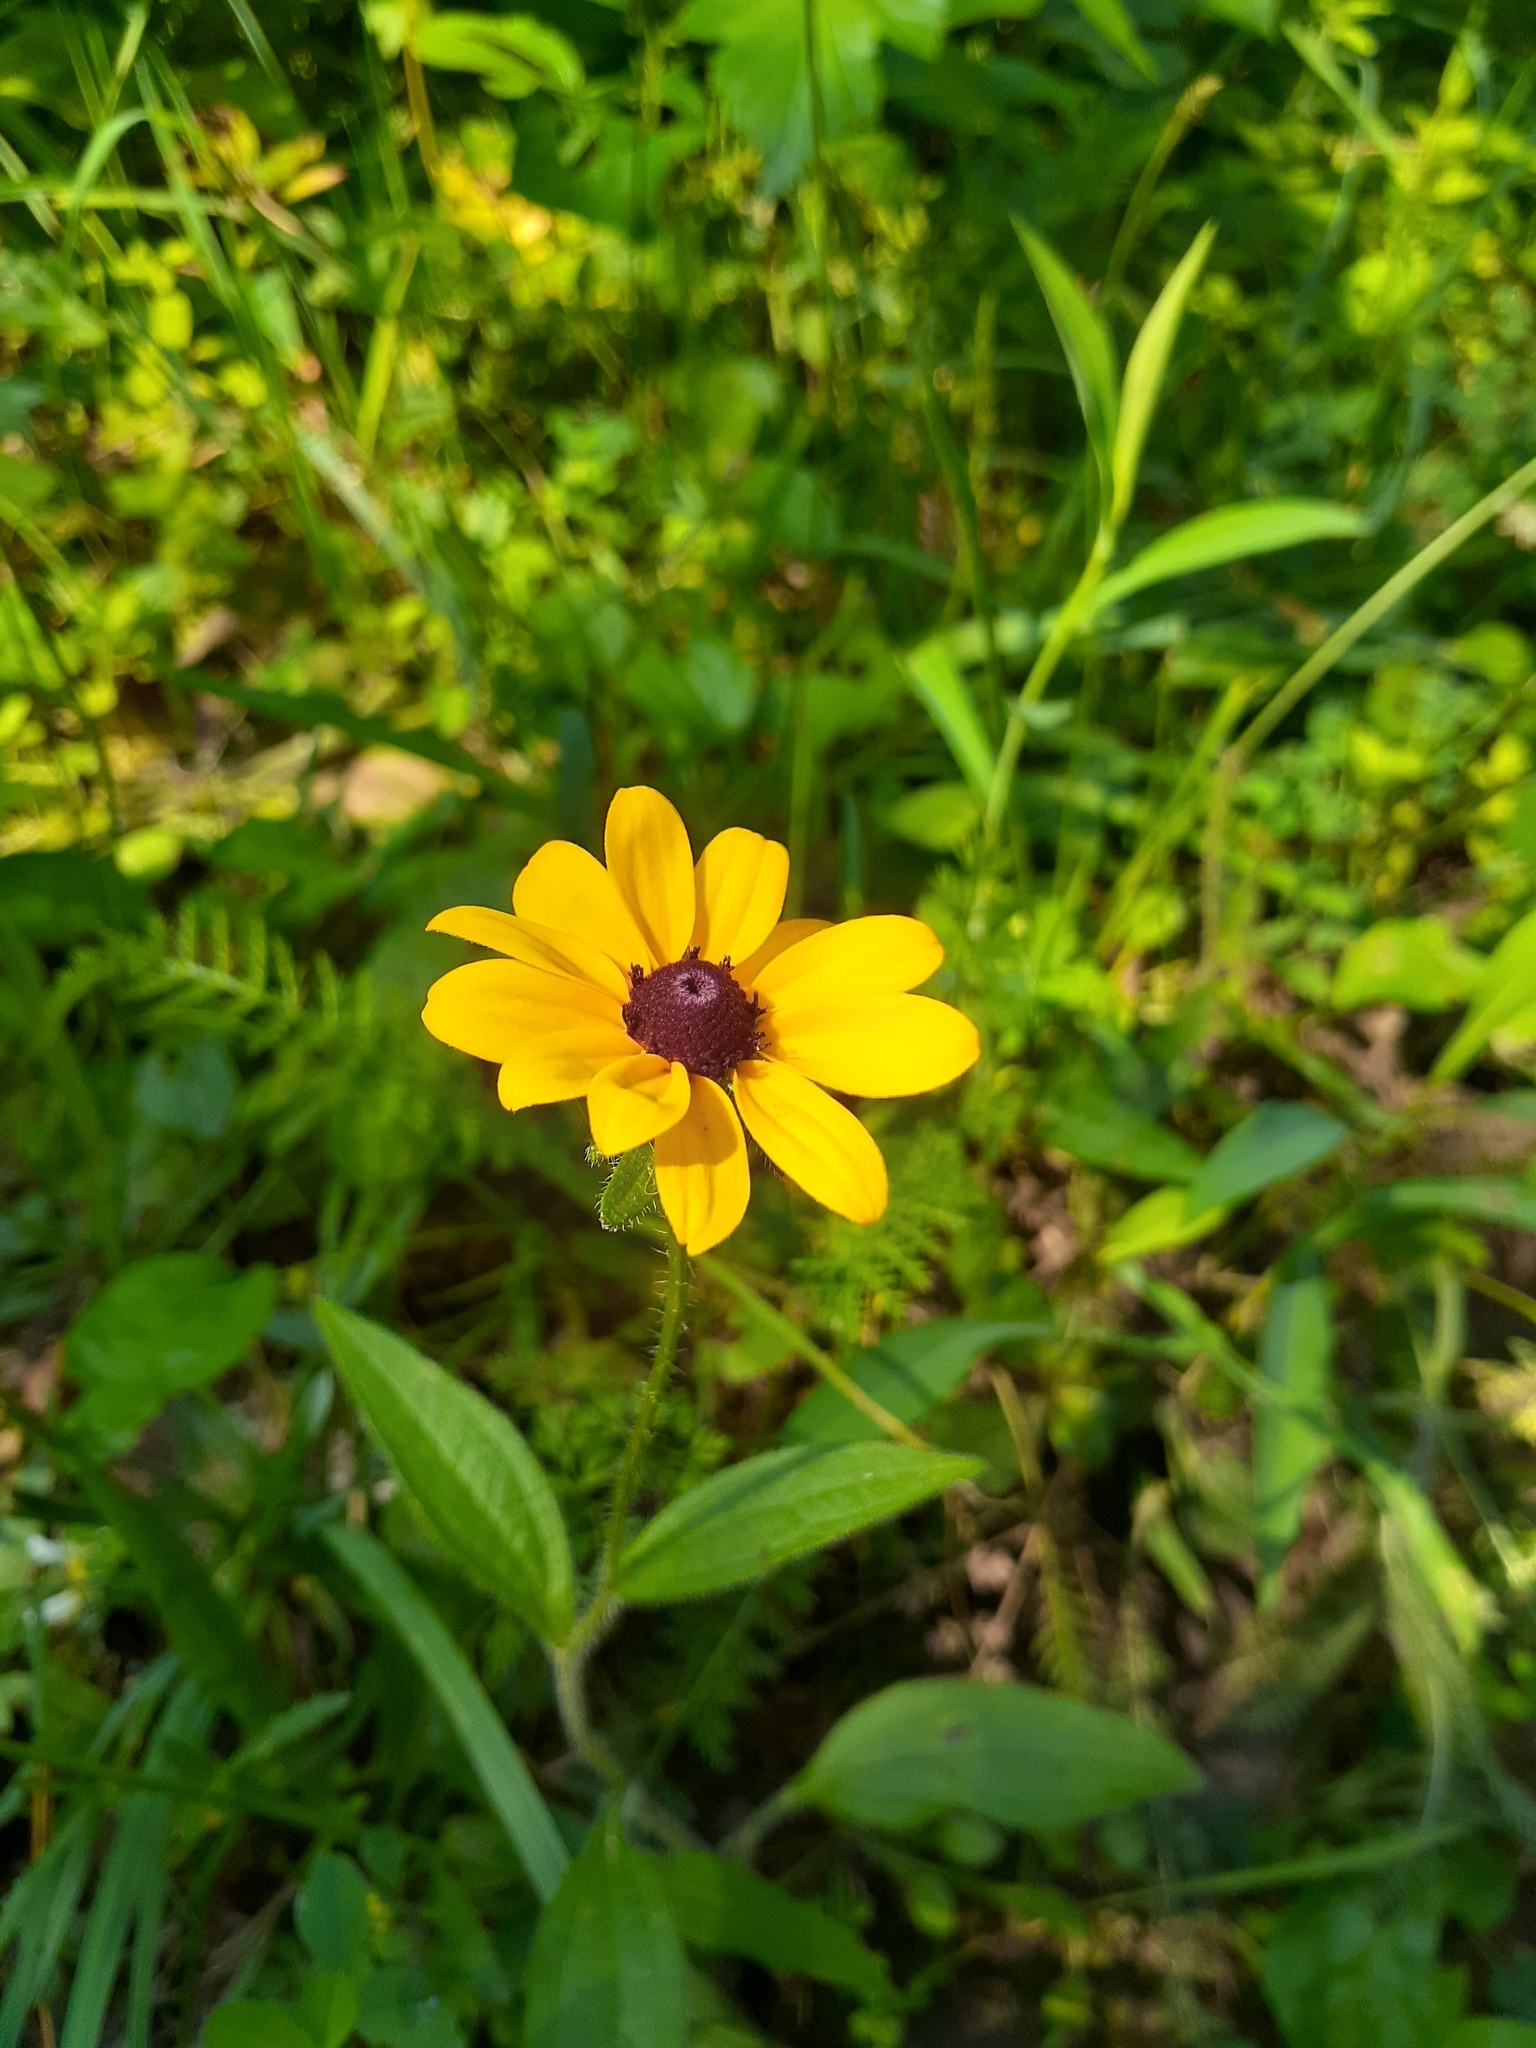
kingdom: Plantae
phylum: Tracheophyta
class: Magnoliopsida
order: Asterales
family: Asteraceae
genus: Rudbeckia
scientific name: Rudbeckia hirta
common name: Black-eyed-susan
